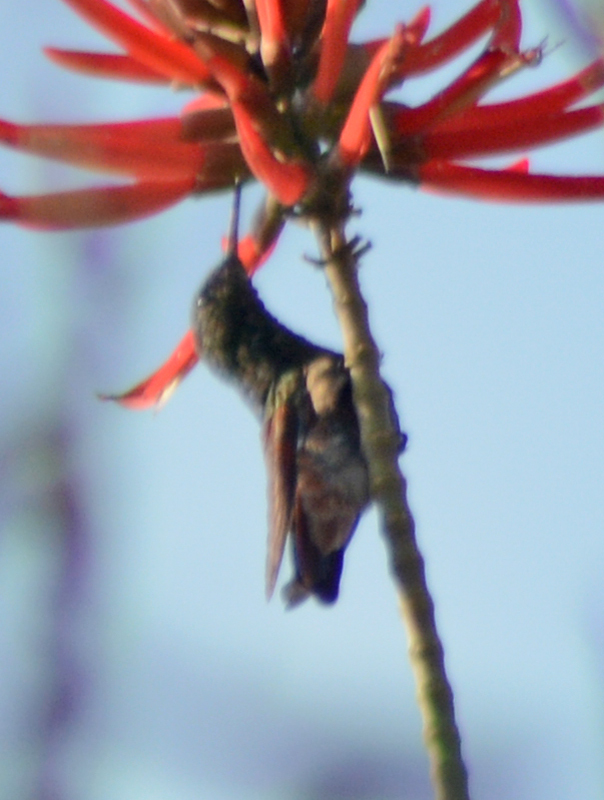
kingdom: Animalia
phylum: Chordata
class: Aves
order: Apodiformes
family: Trochilidae
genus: Saucerottia
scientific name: Saucerottia beryllina
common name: Berylline hummingbird
